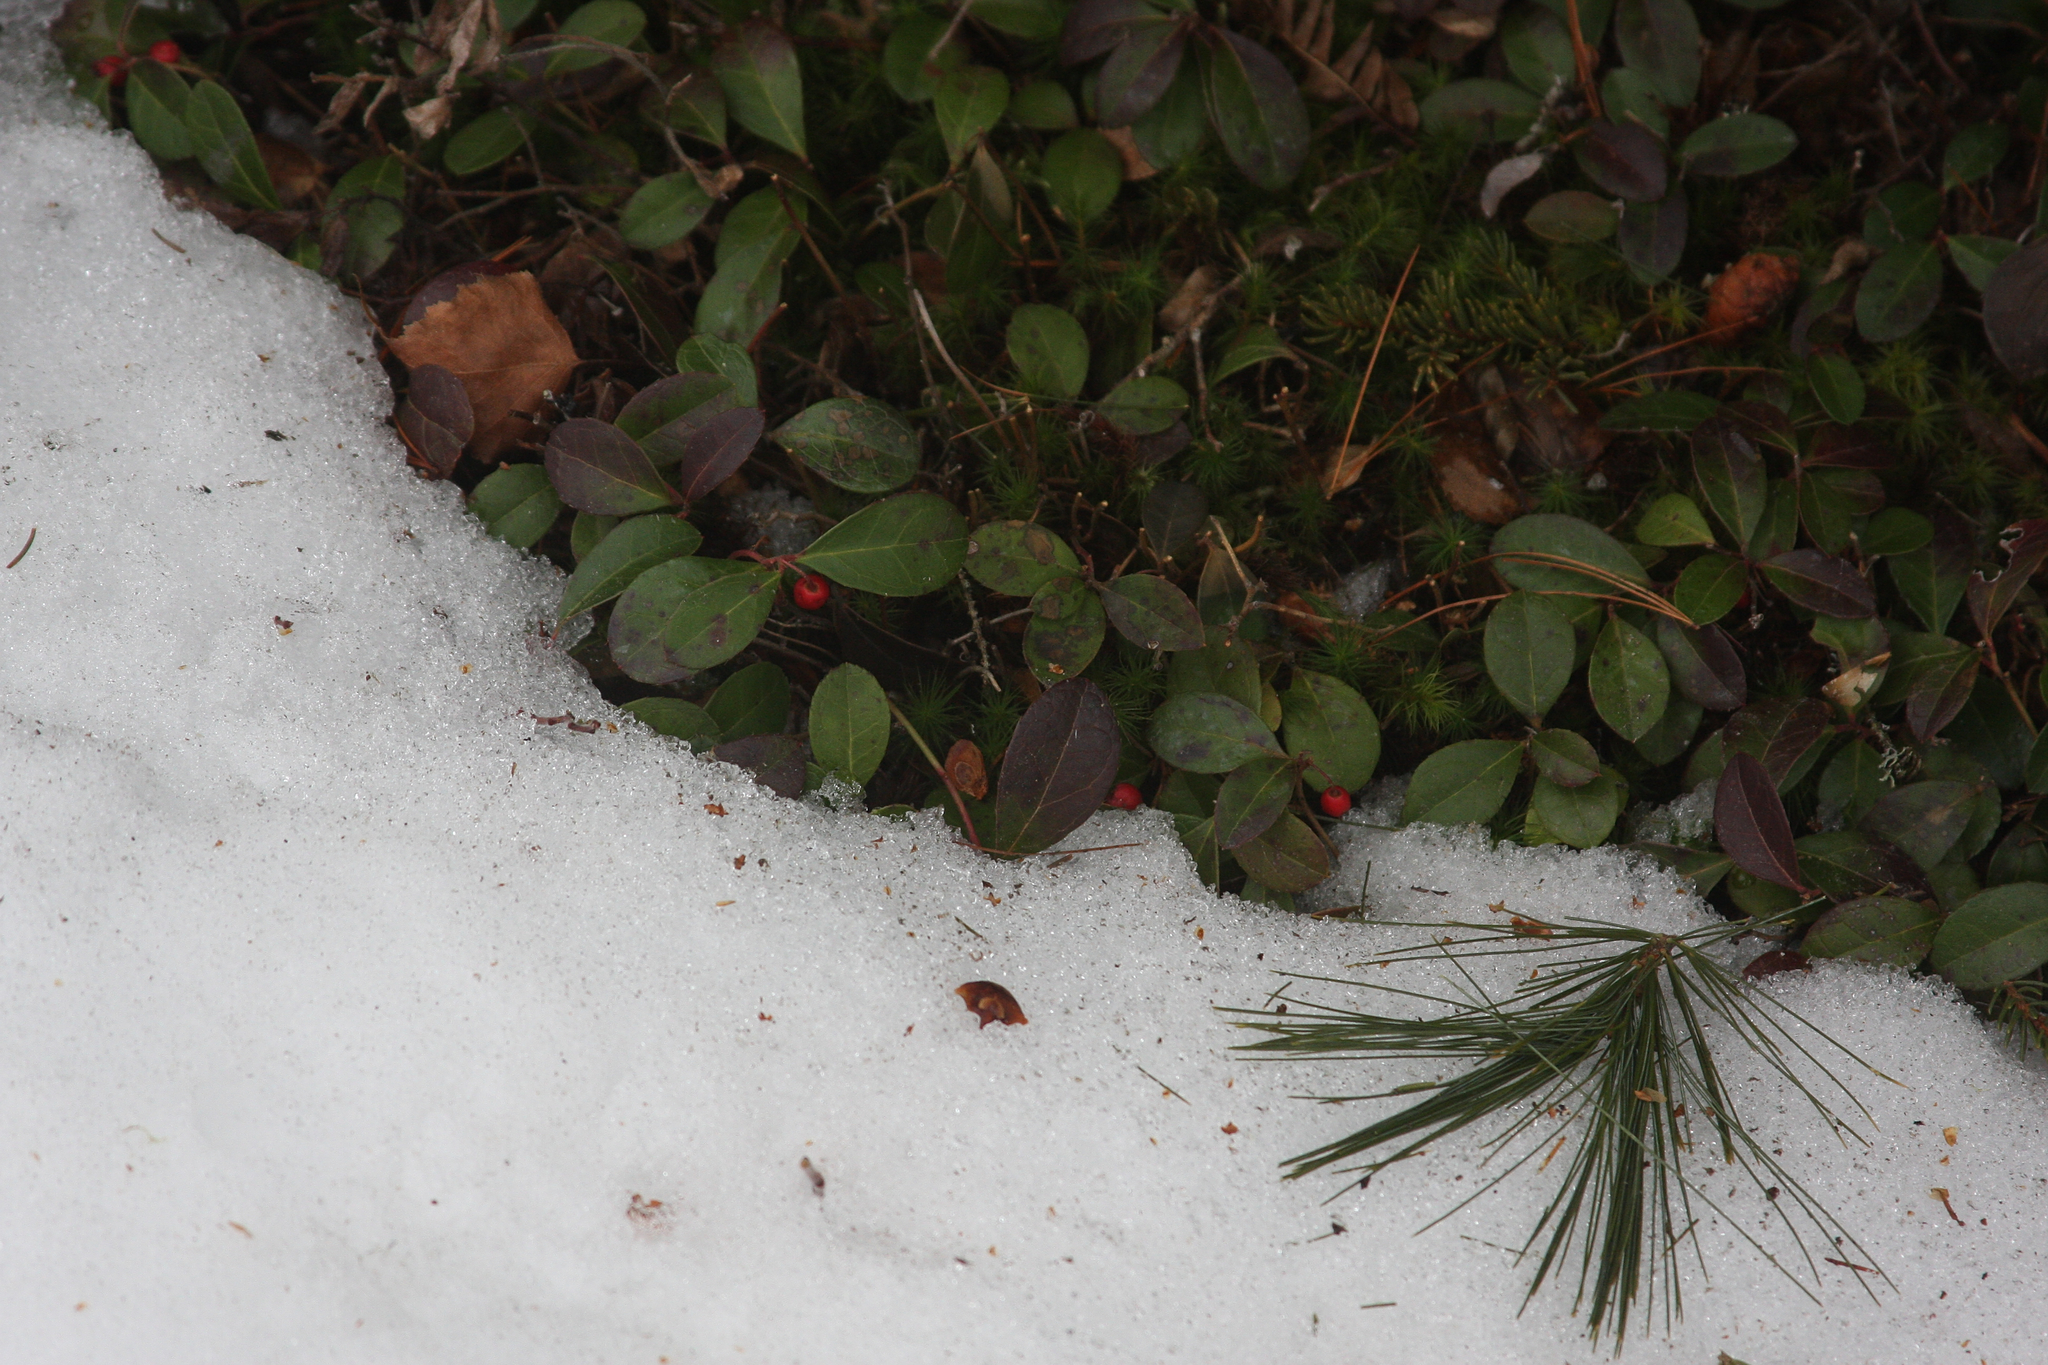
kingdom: Plantae
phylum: Tracheophyta
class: Magnoliopsida
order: Ericales
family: Ericaceae
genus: Gaultheria
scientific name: Gaultheria procumbens
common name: Checkerberry
